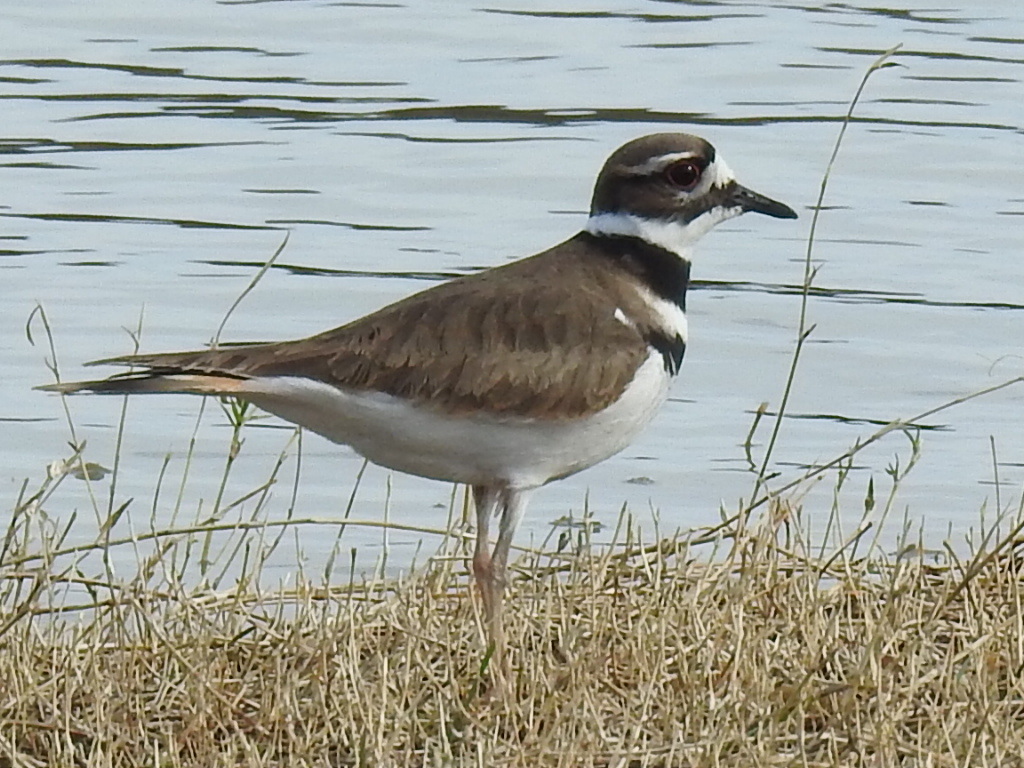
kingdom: Animalia
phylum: Chordata
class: Aves
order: Charadriiformes
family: Charadriidae
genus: Charadrius
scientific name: Charadrius vociferus
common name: Killdeer
